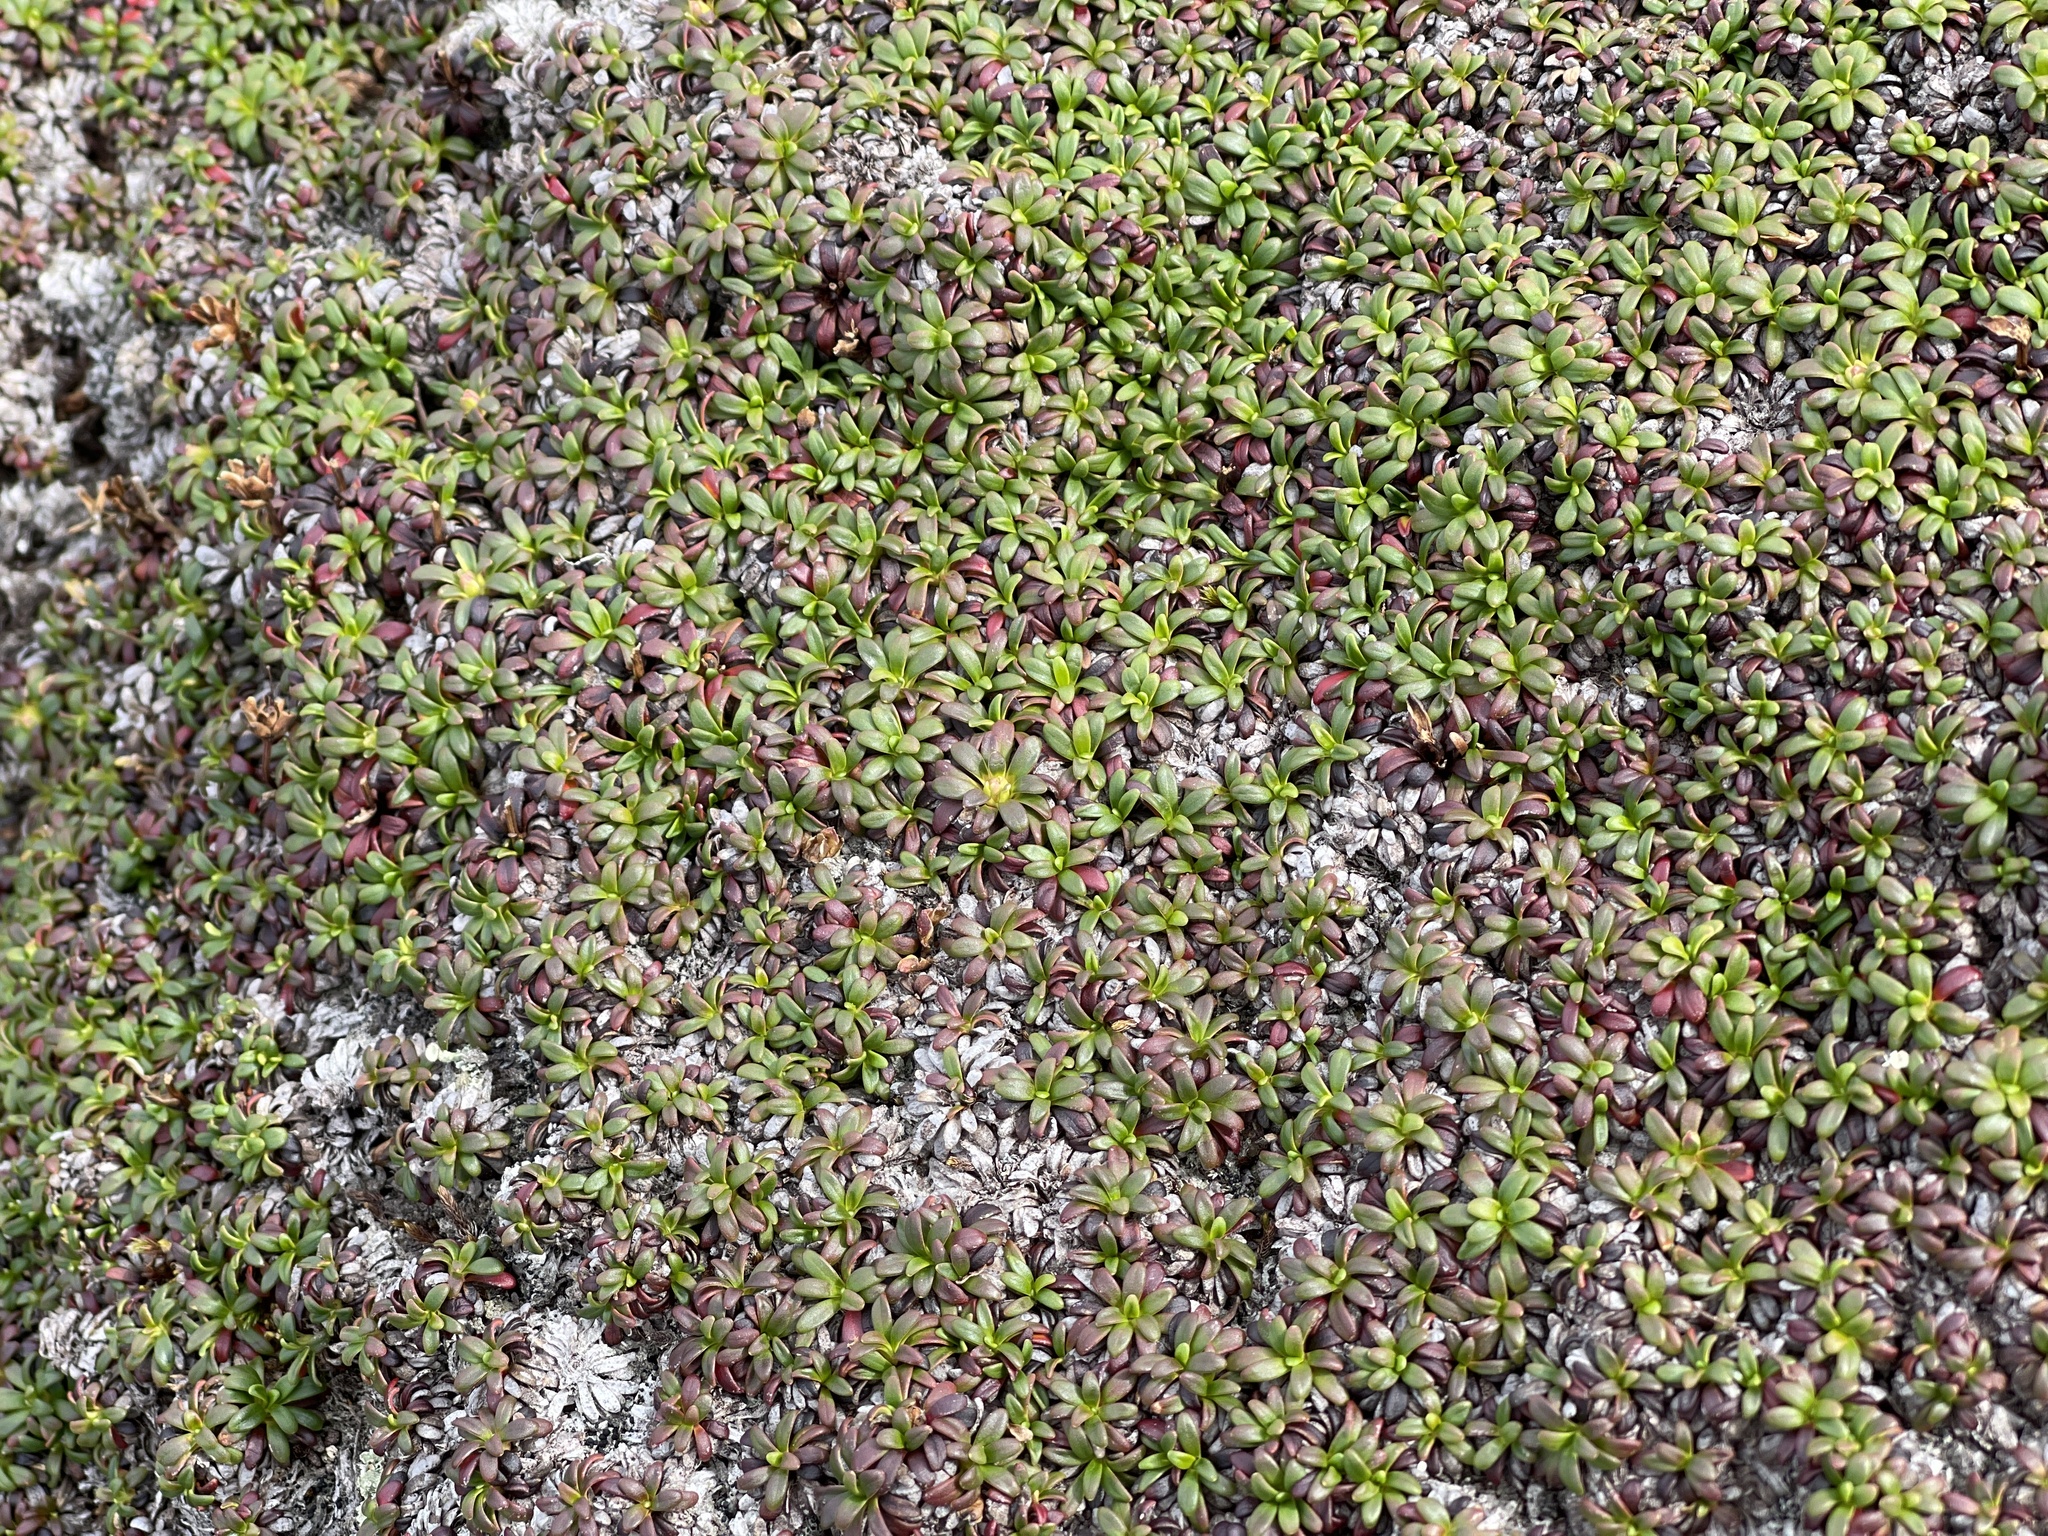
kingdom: Plantae
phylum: Tracheophyta
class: Magnoliopsida
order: Ericales
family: Diapensiaceae
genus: Diapensia
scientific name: Diapensia lapponica
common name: Diapensia
